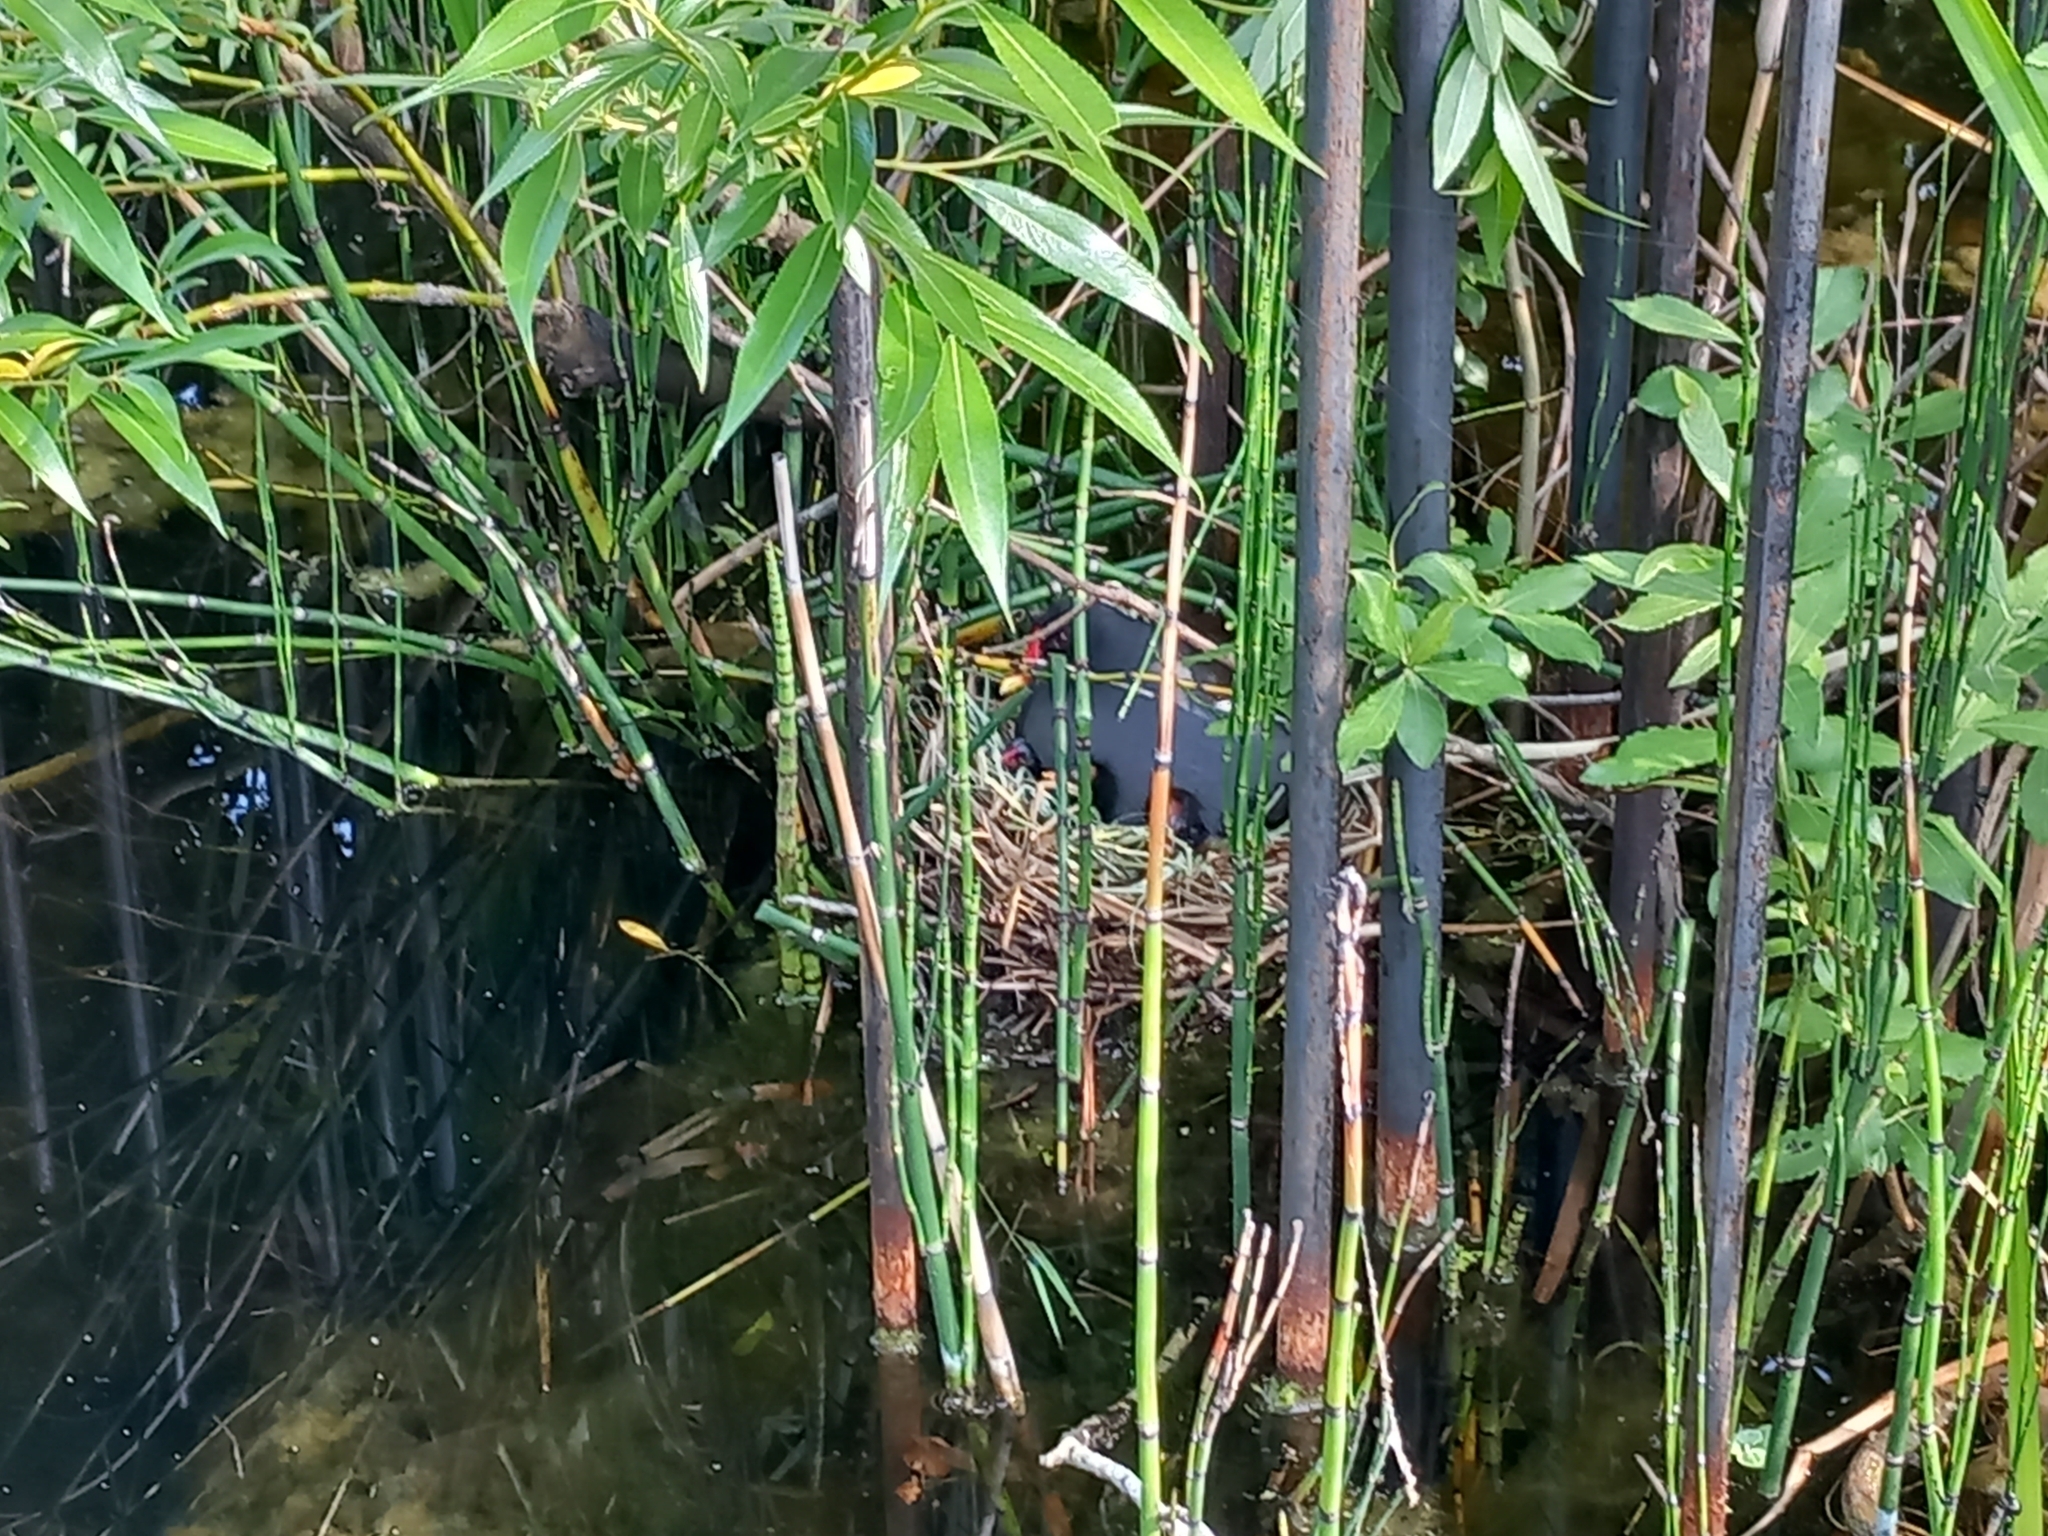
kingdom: Animalia
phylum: Chordata
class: Aves
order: Gruiformes
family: Rallidae
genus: Gallinula
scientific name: Gallinula chloropus
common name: Common moorhen
